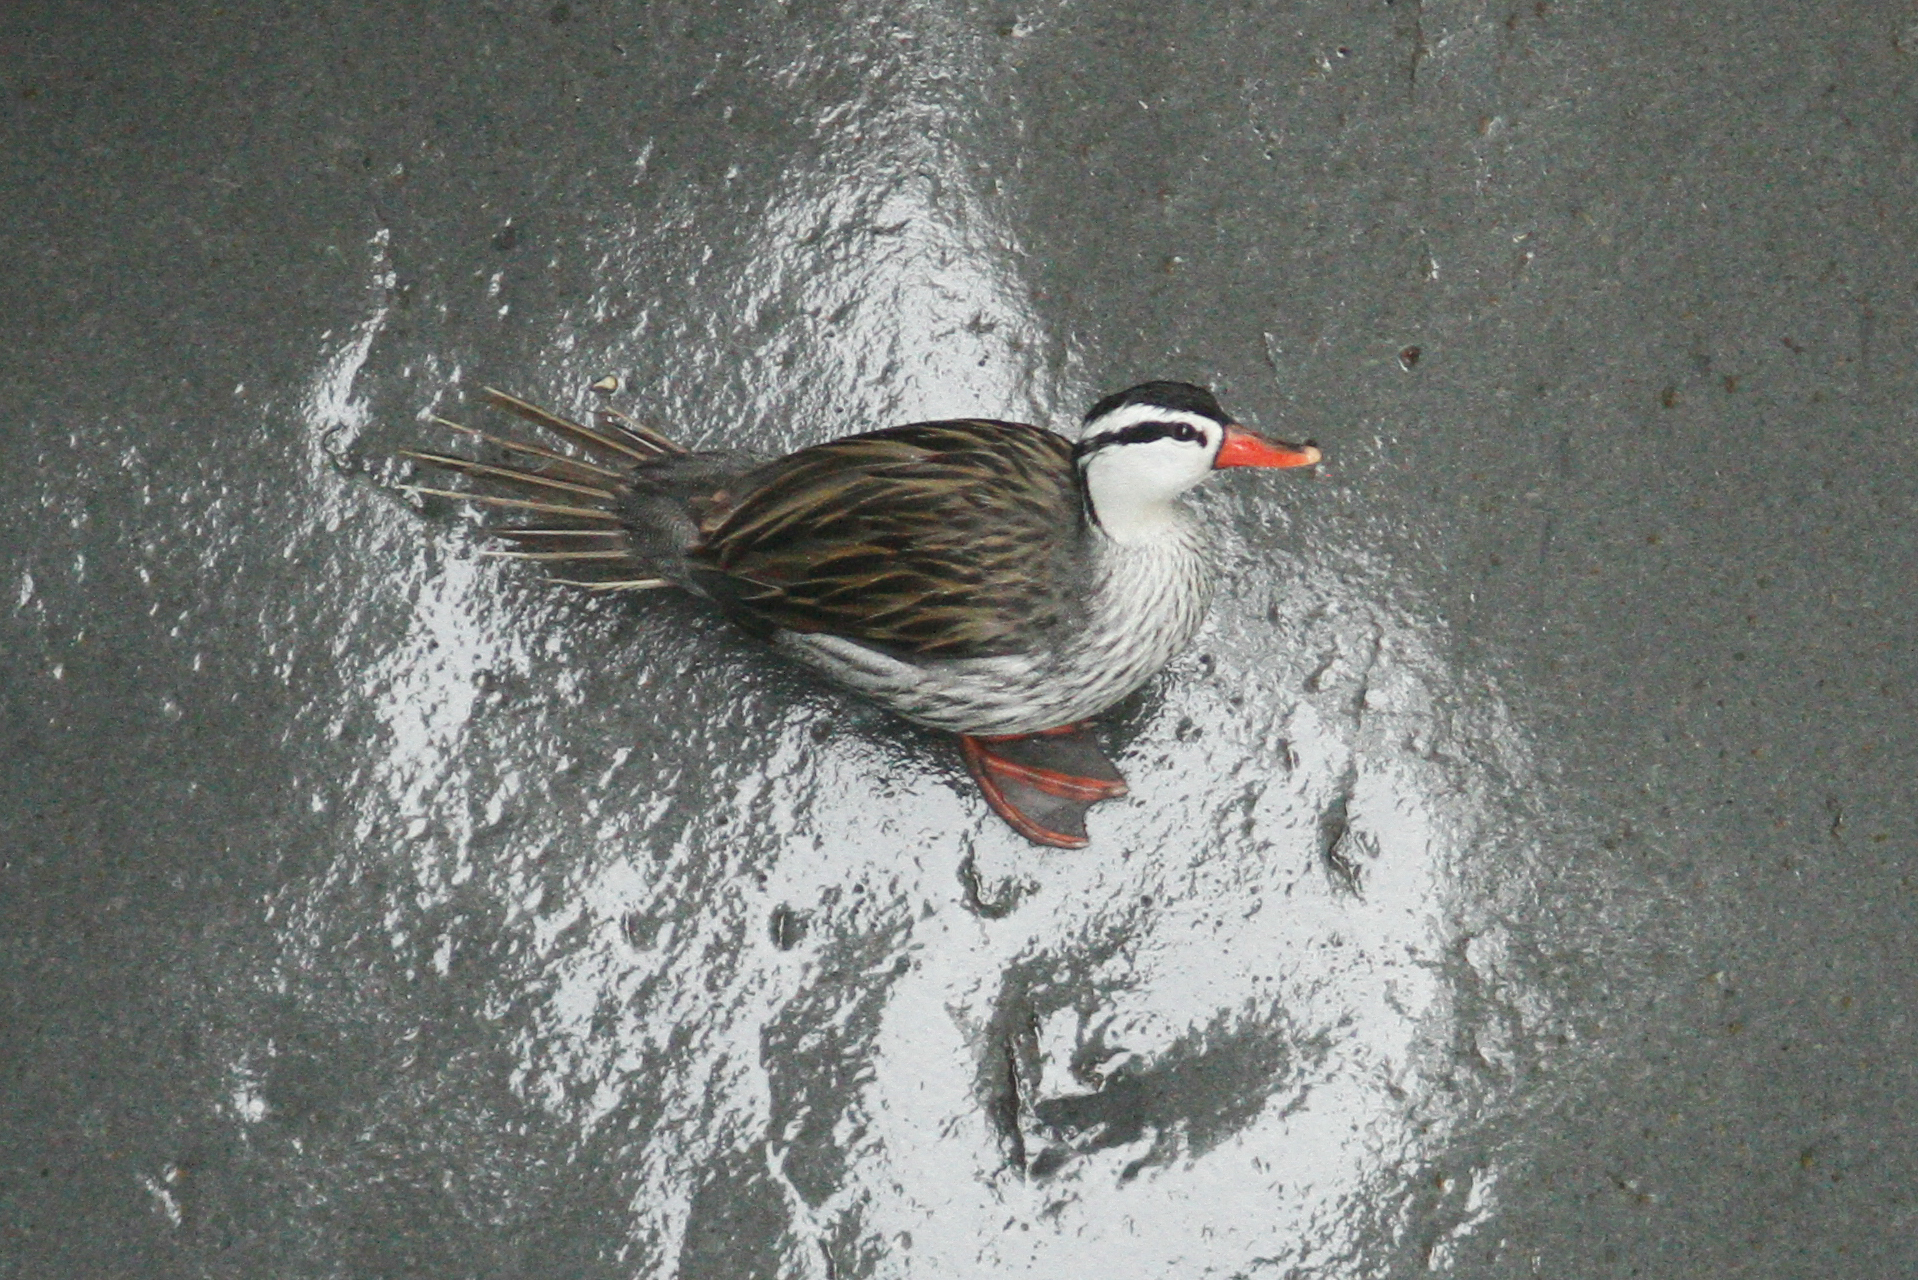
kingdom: Animalia
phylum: Chordata
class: Aves
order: Anseriformes
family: Anatidae
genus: Merganetta
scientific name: Merganetta armata
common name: Torrent duck
